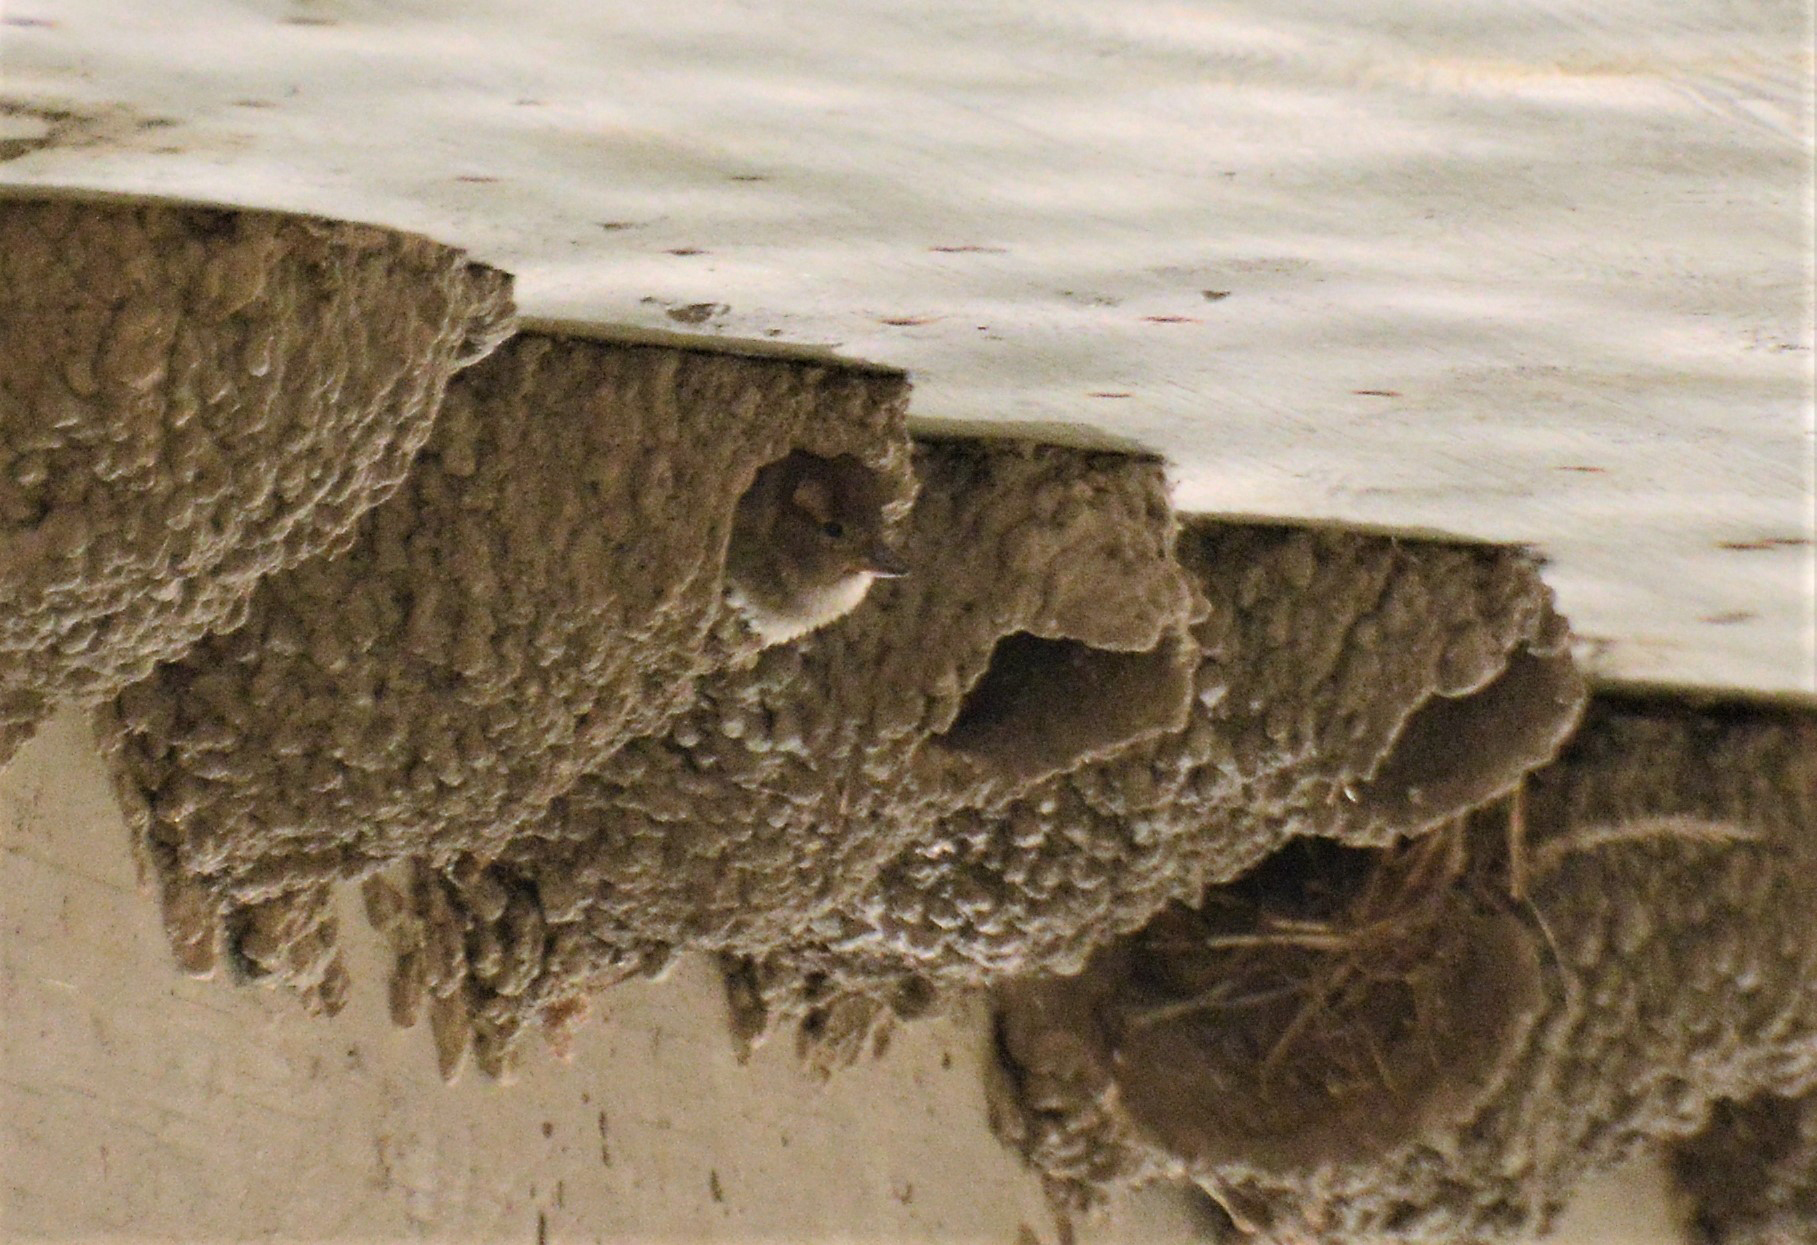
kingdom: Animalia
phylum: Chordata
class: Aves
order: Passeriformes
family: Passeridae
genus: Passer
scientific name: Passer domesticus
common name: House sparrow
